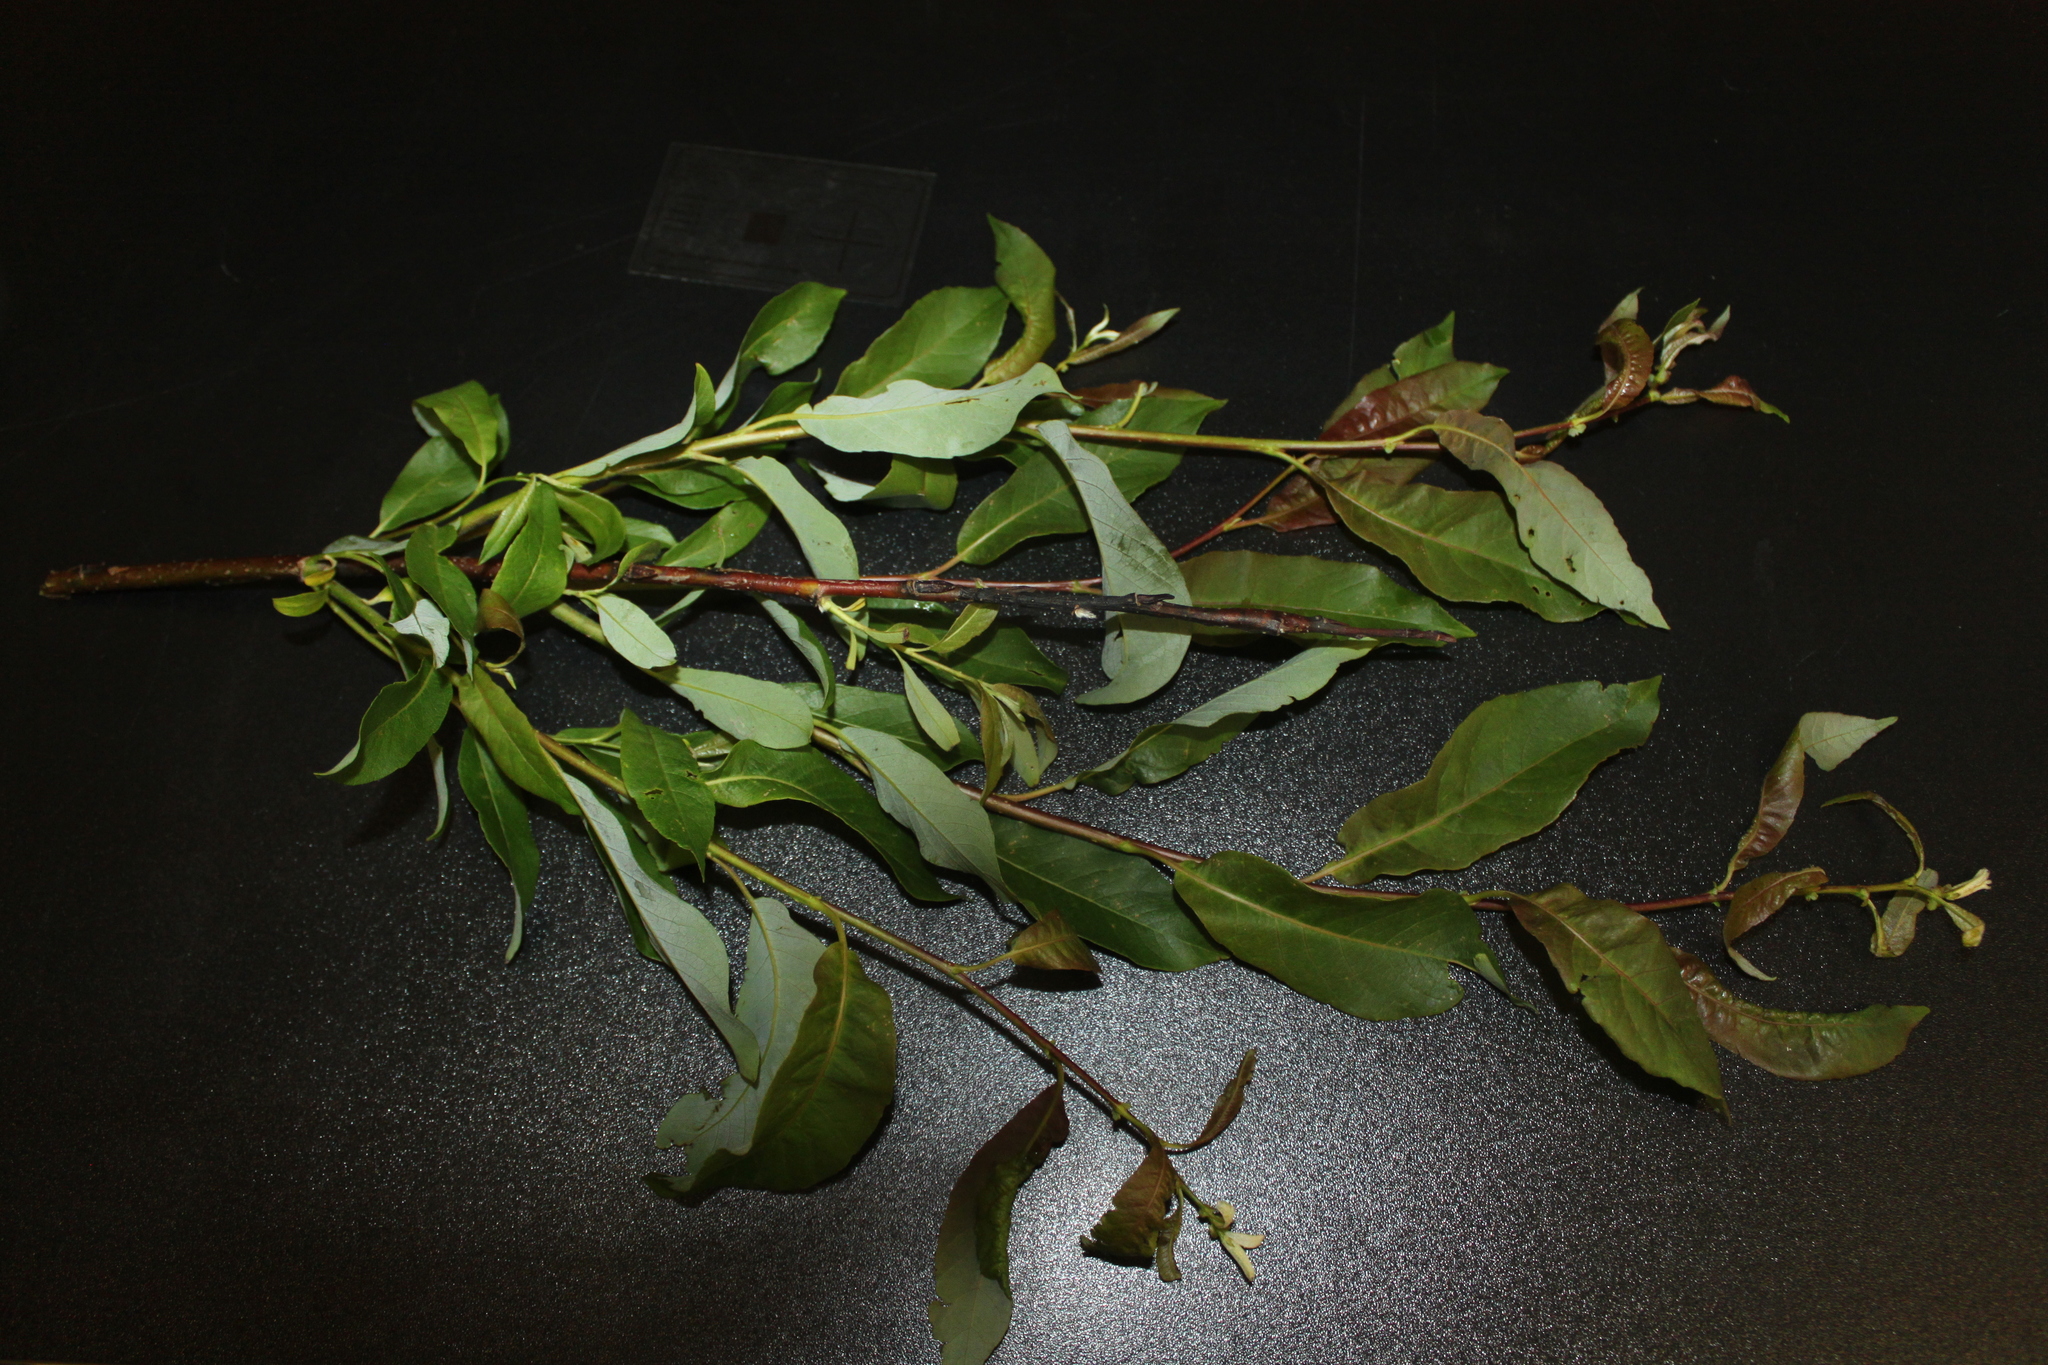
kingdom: Plantae
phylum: Tracheophyta
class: Magnoliopsida
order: Malpighiales
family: Salicaceae
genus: Salix
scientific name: Salix discolor
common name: Glaucous willow
